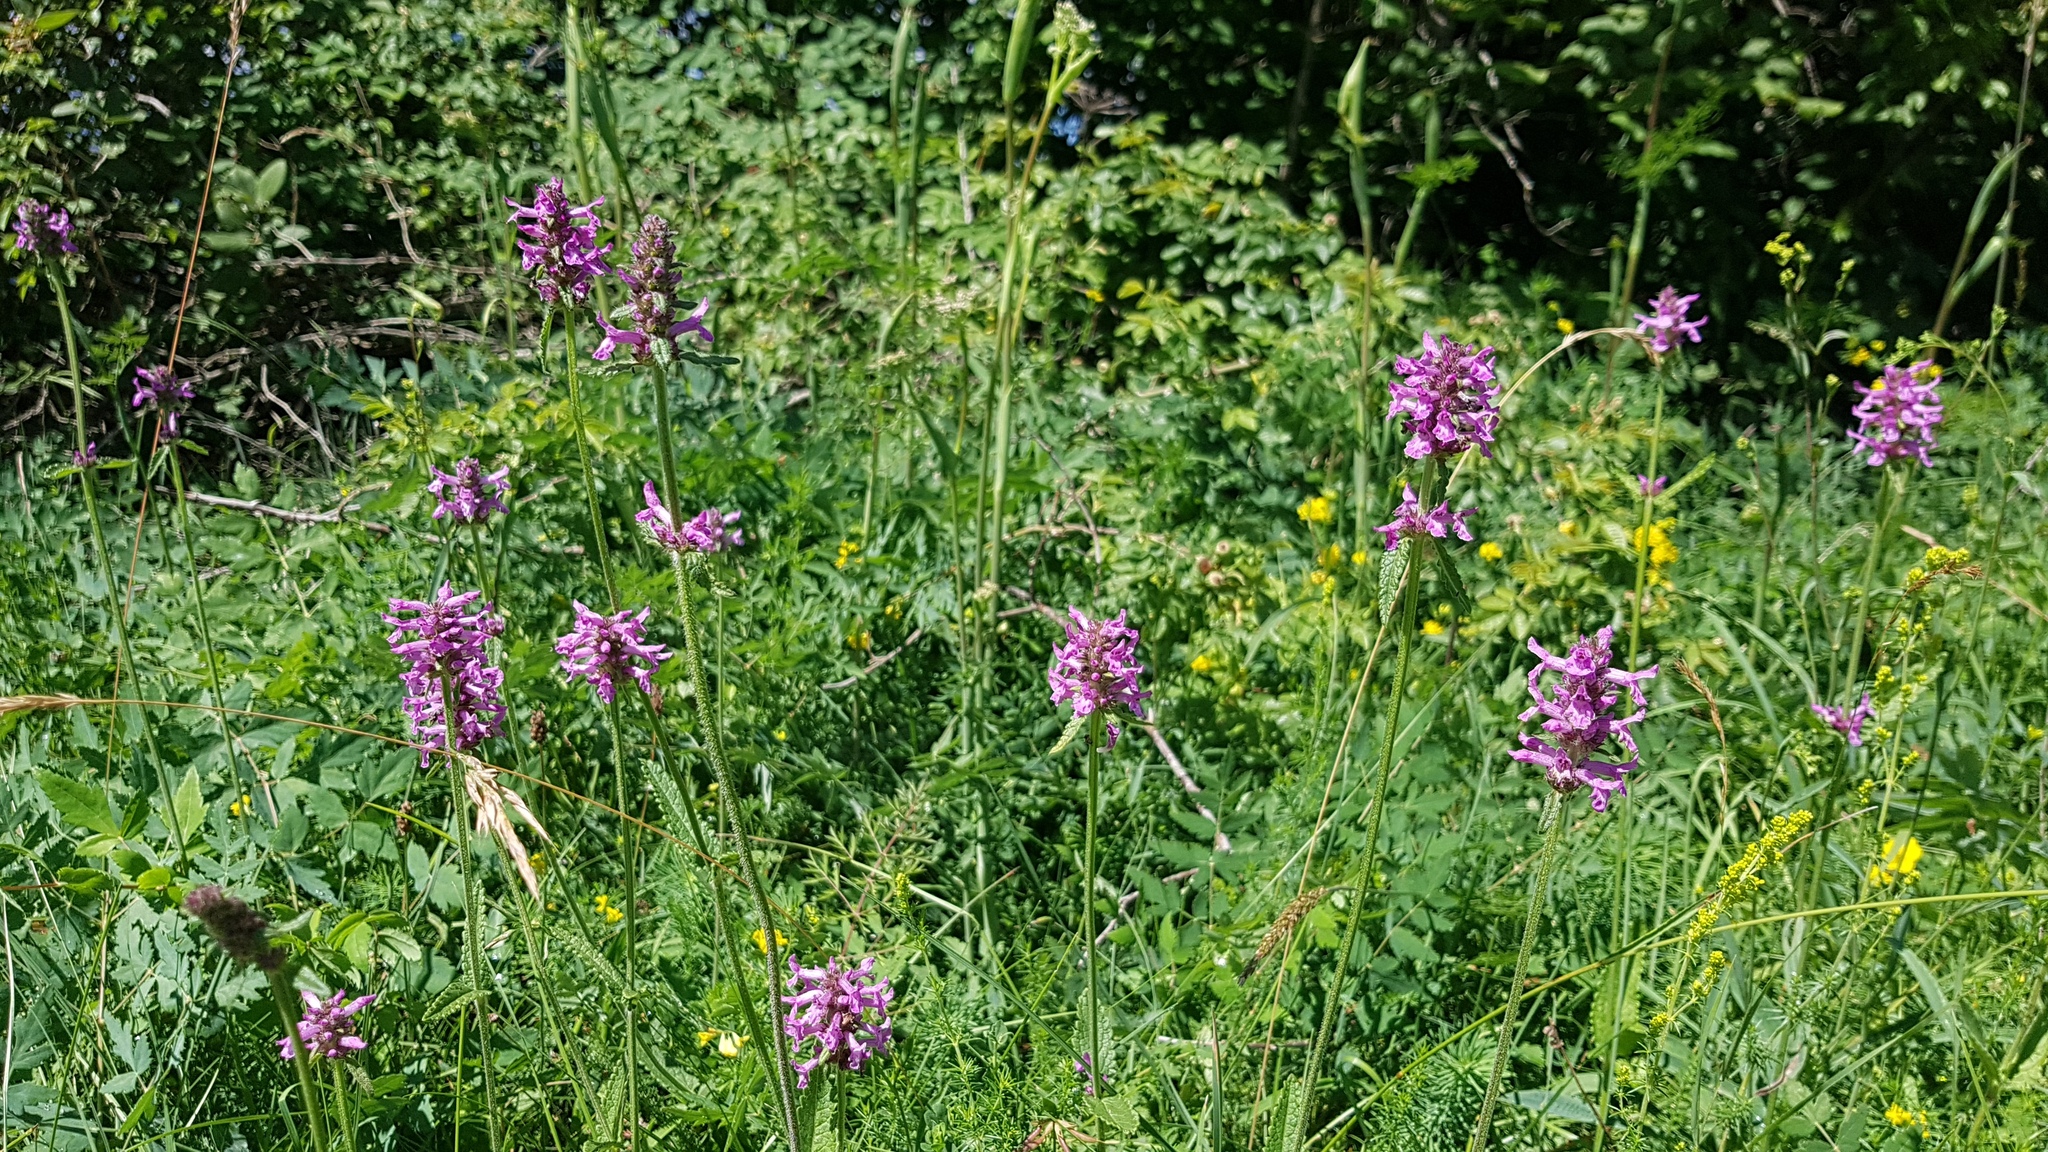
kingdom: Plantae
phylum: Tracheophyta
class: Magnoliopsida
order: Lamiales
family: Lamiaceae
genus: Betonica
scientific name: Betonica officinalis
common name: Bishop's-wort
